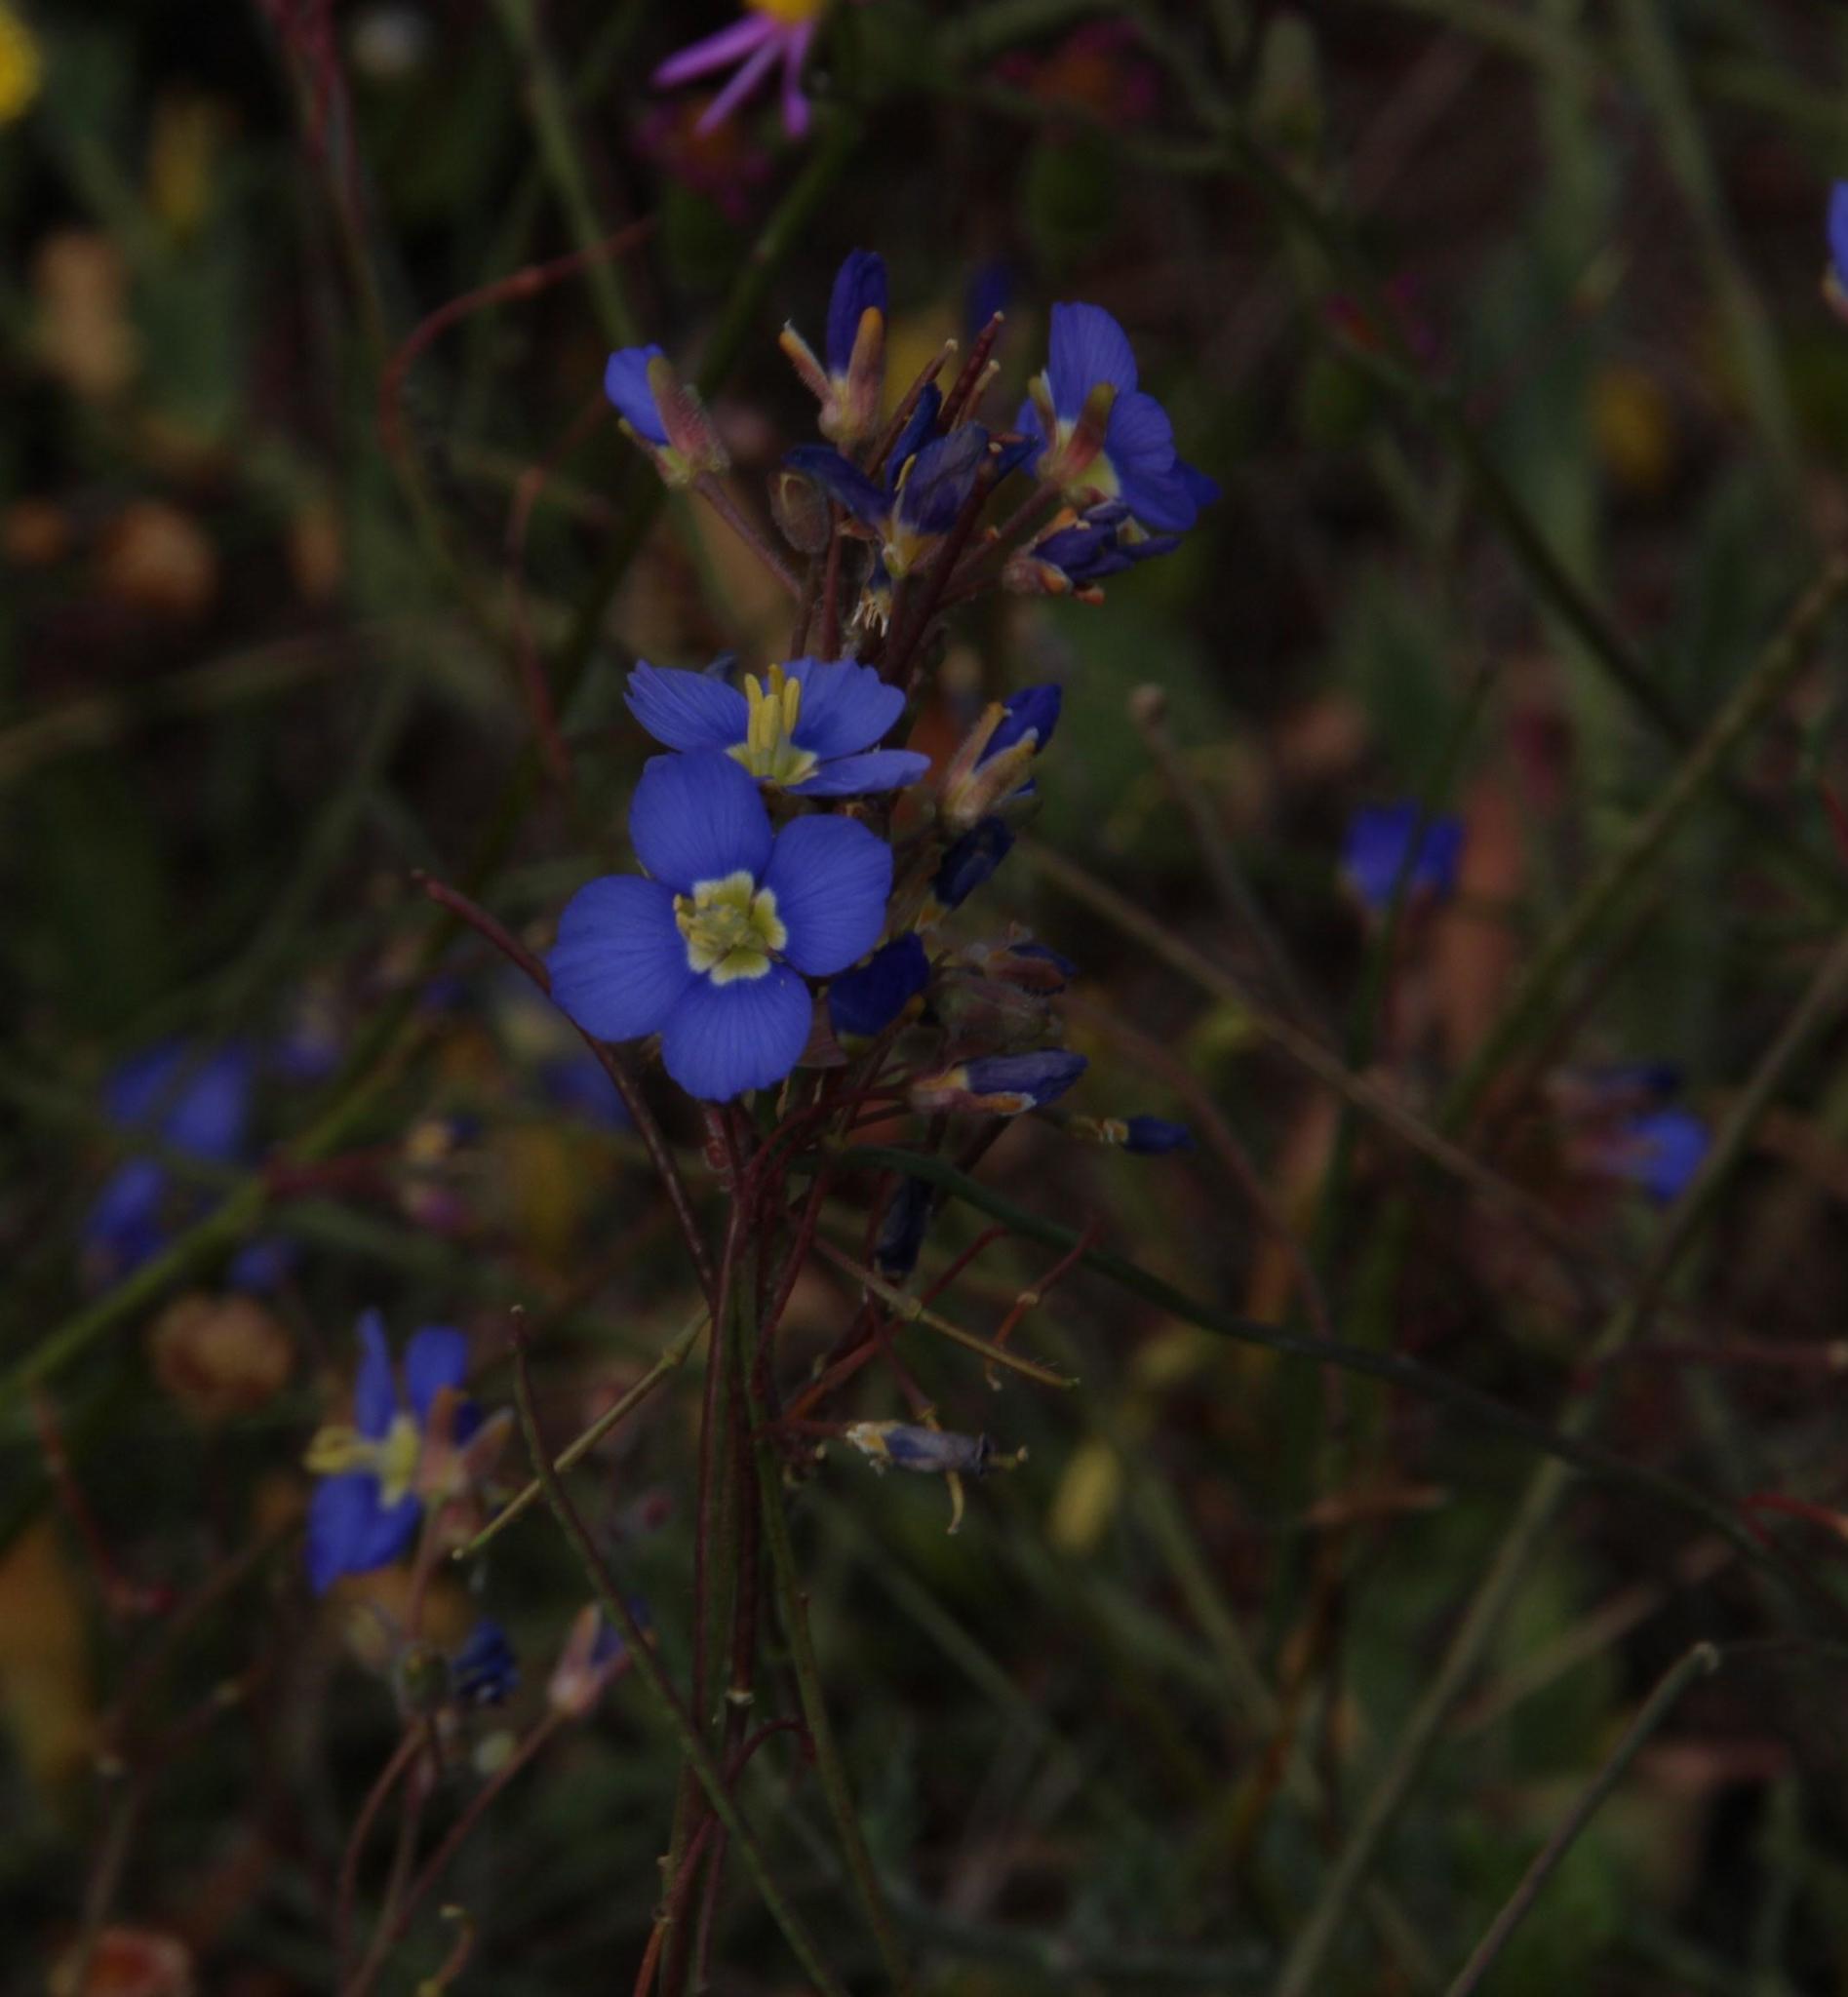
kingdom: Plantae
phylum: Tracheophyta
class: Magnoliopsida
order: Brassicales
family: Brassicaceae
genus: Heliophila
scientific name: Heliophila africana
